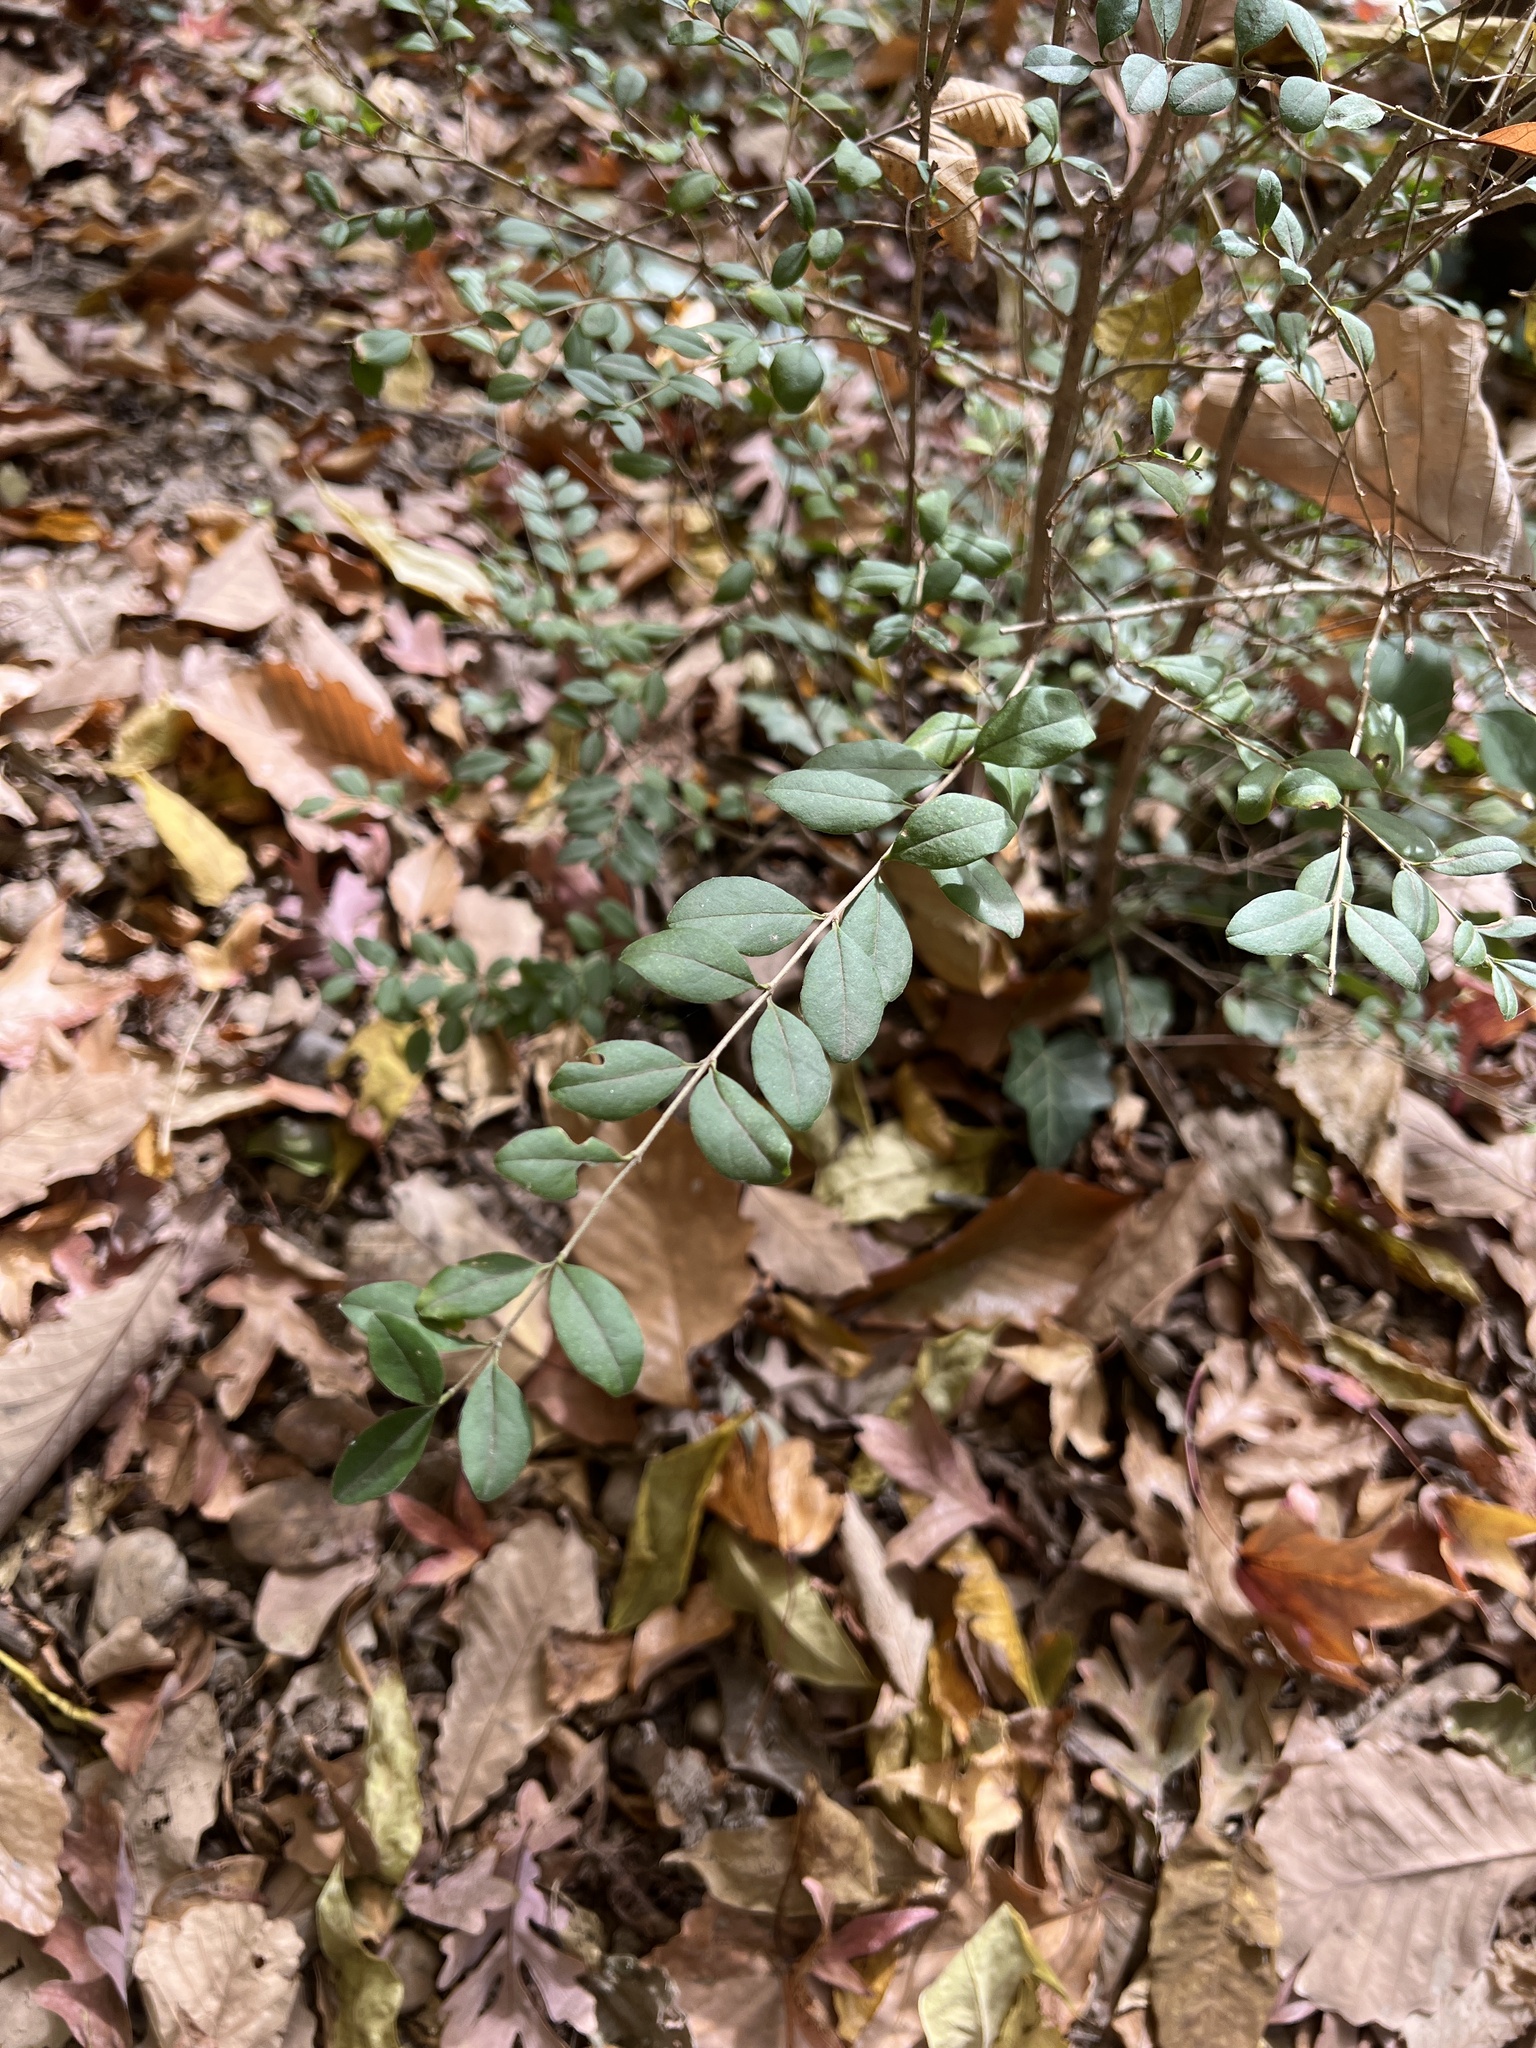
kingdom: Plantae
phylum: Tracheophyta
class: Magnoliopsida
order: Lamiales
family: Oleaceae
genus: Ligustrum
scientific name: Ligustrum sinense
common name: Chinese privet
